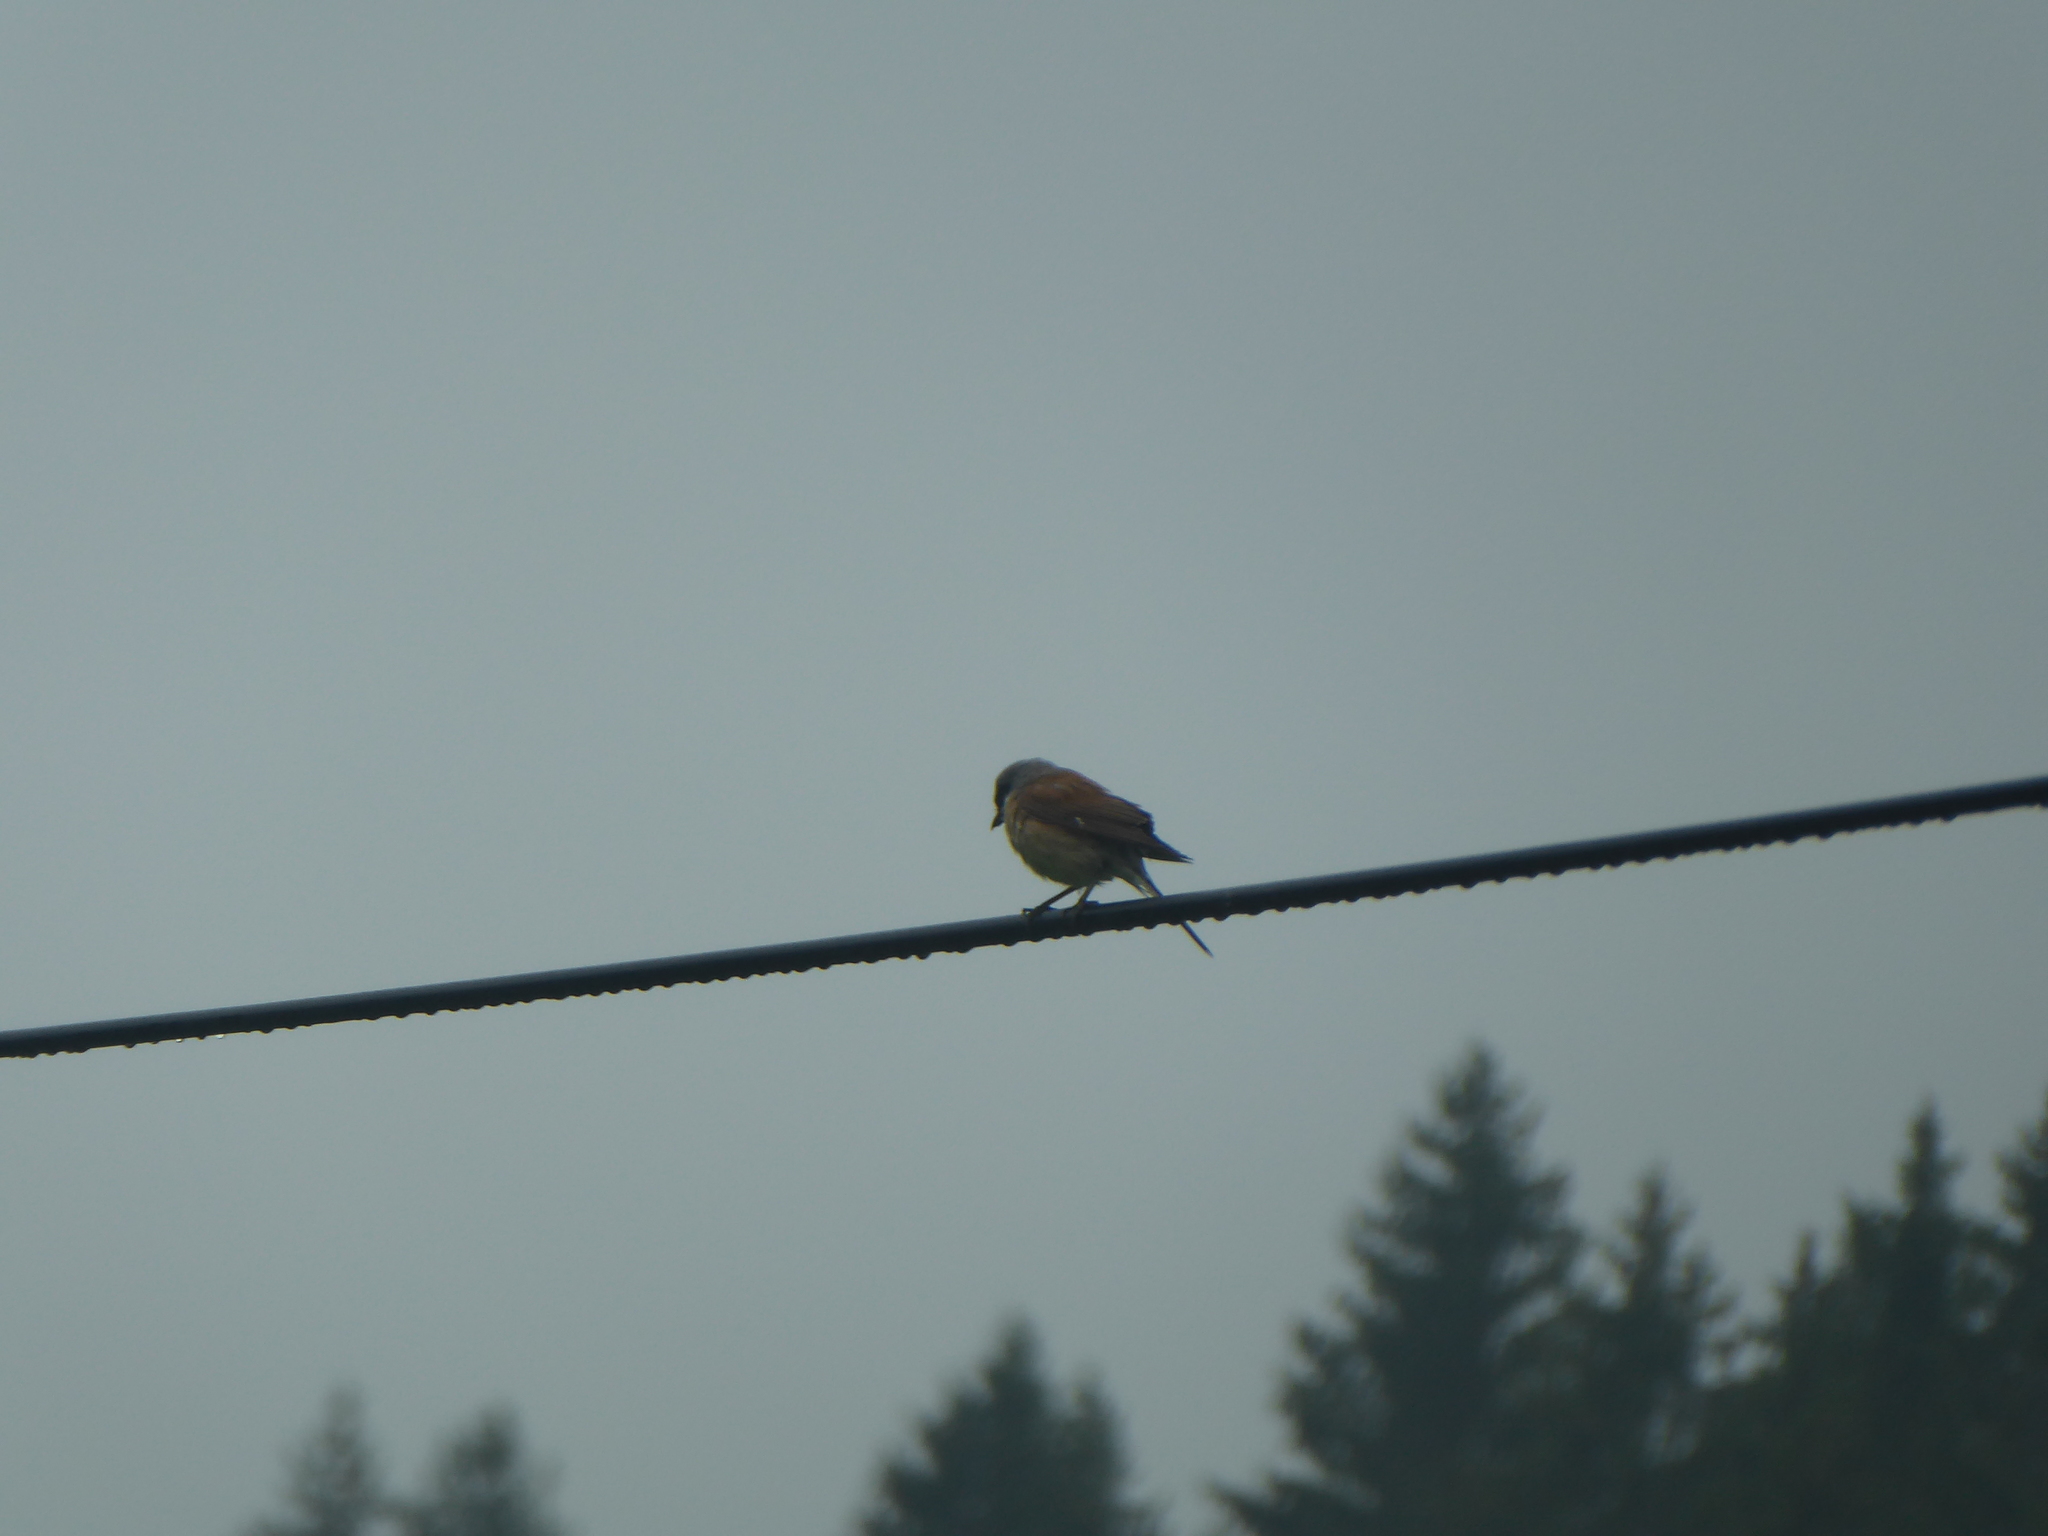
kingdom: Animalia
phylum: Chordata
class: Aves
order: Passeriformes
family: Laniidae
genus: Lanius
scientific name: Lanius collurio
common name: Red-backed shrike
